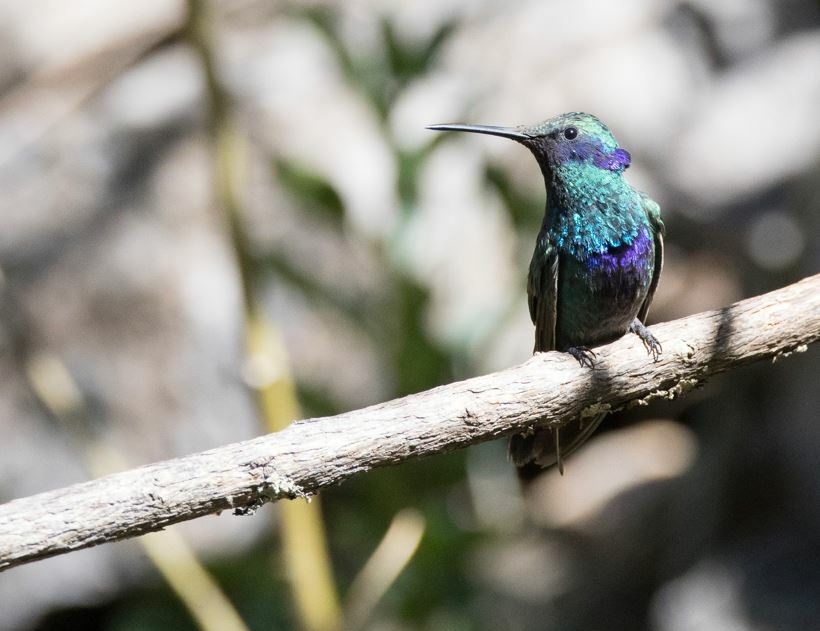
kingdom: Animalia
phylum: Chordata
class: Aves
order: Apodiformes
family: Trochilidae
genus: Colibri
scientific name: Colibri coruscans
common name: Sparkling violetear
